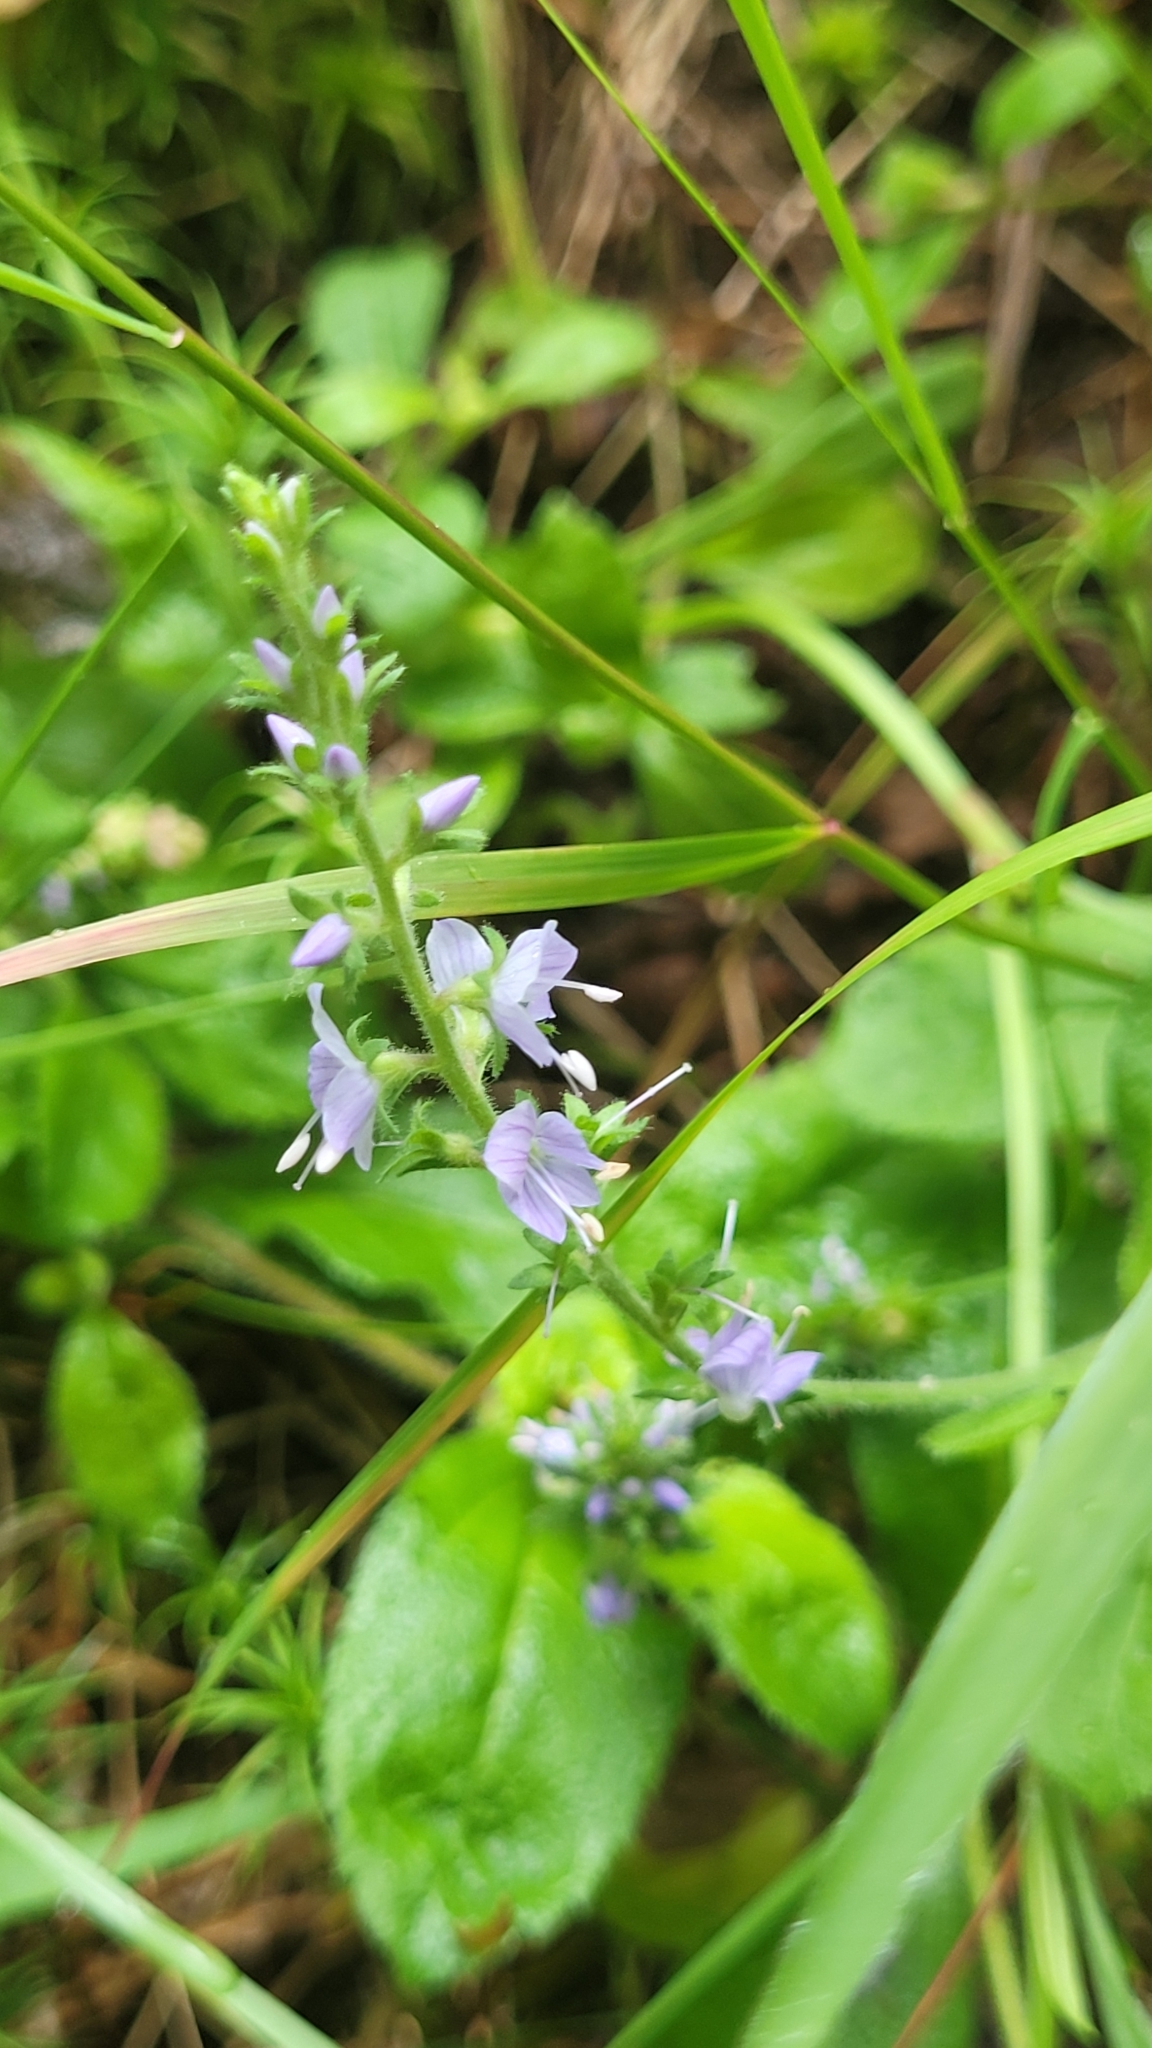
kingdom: Plantae
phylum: Tracheophyta
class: Magnoliopsida
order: Lamiales
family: Plantaginaceae
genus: Veronica
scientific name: Veronica officinalis
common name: Common speedwell
